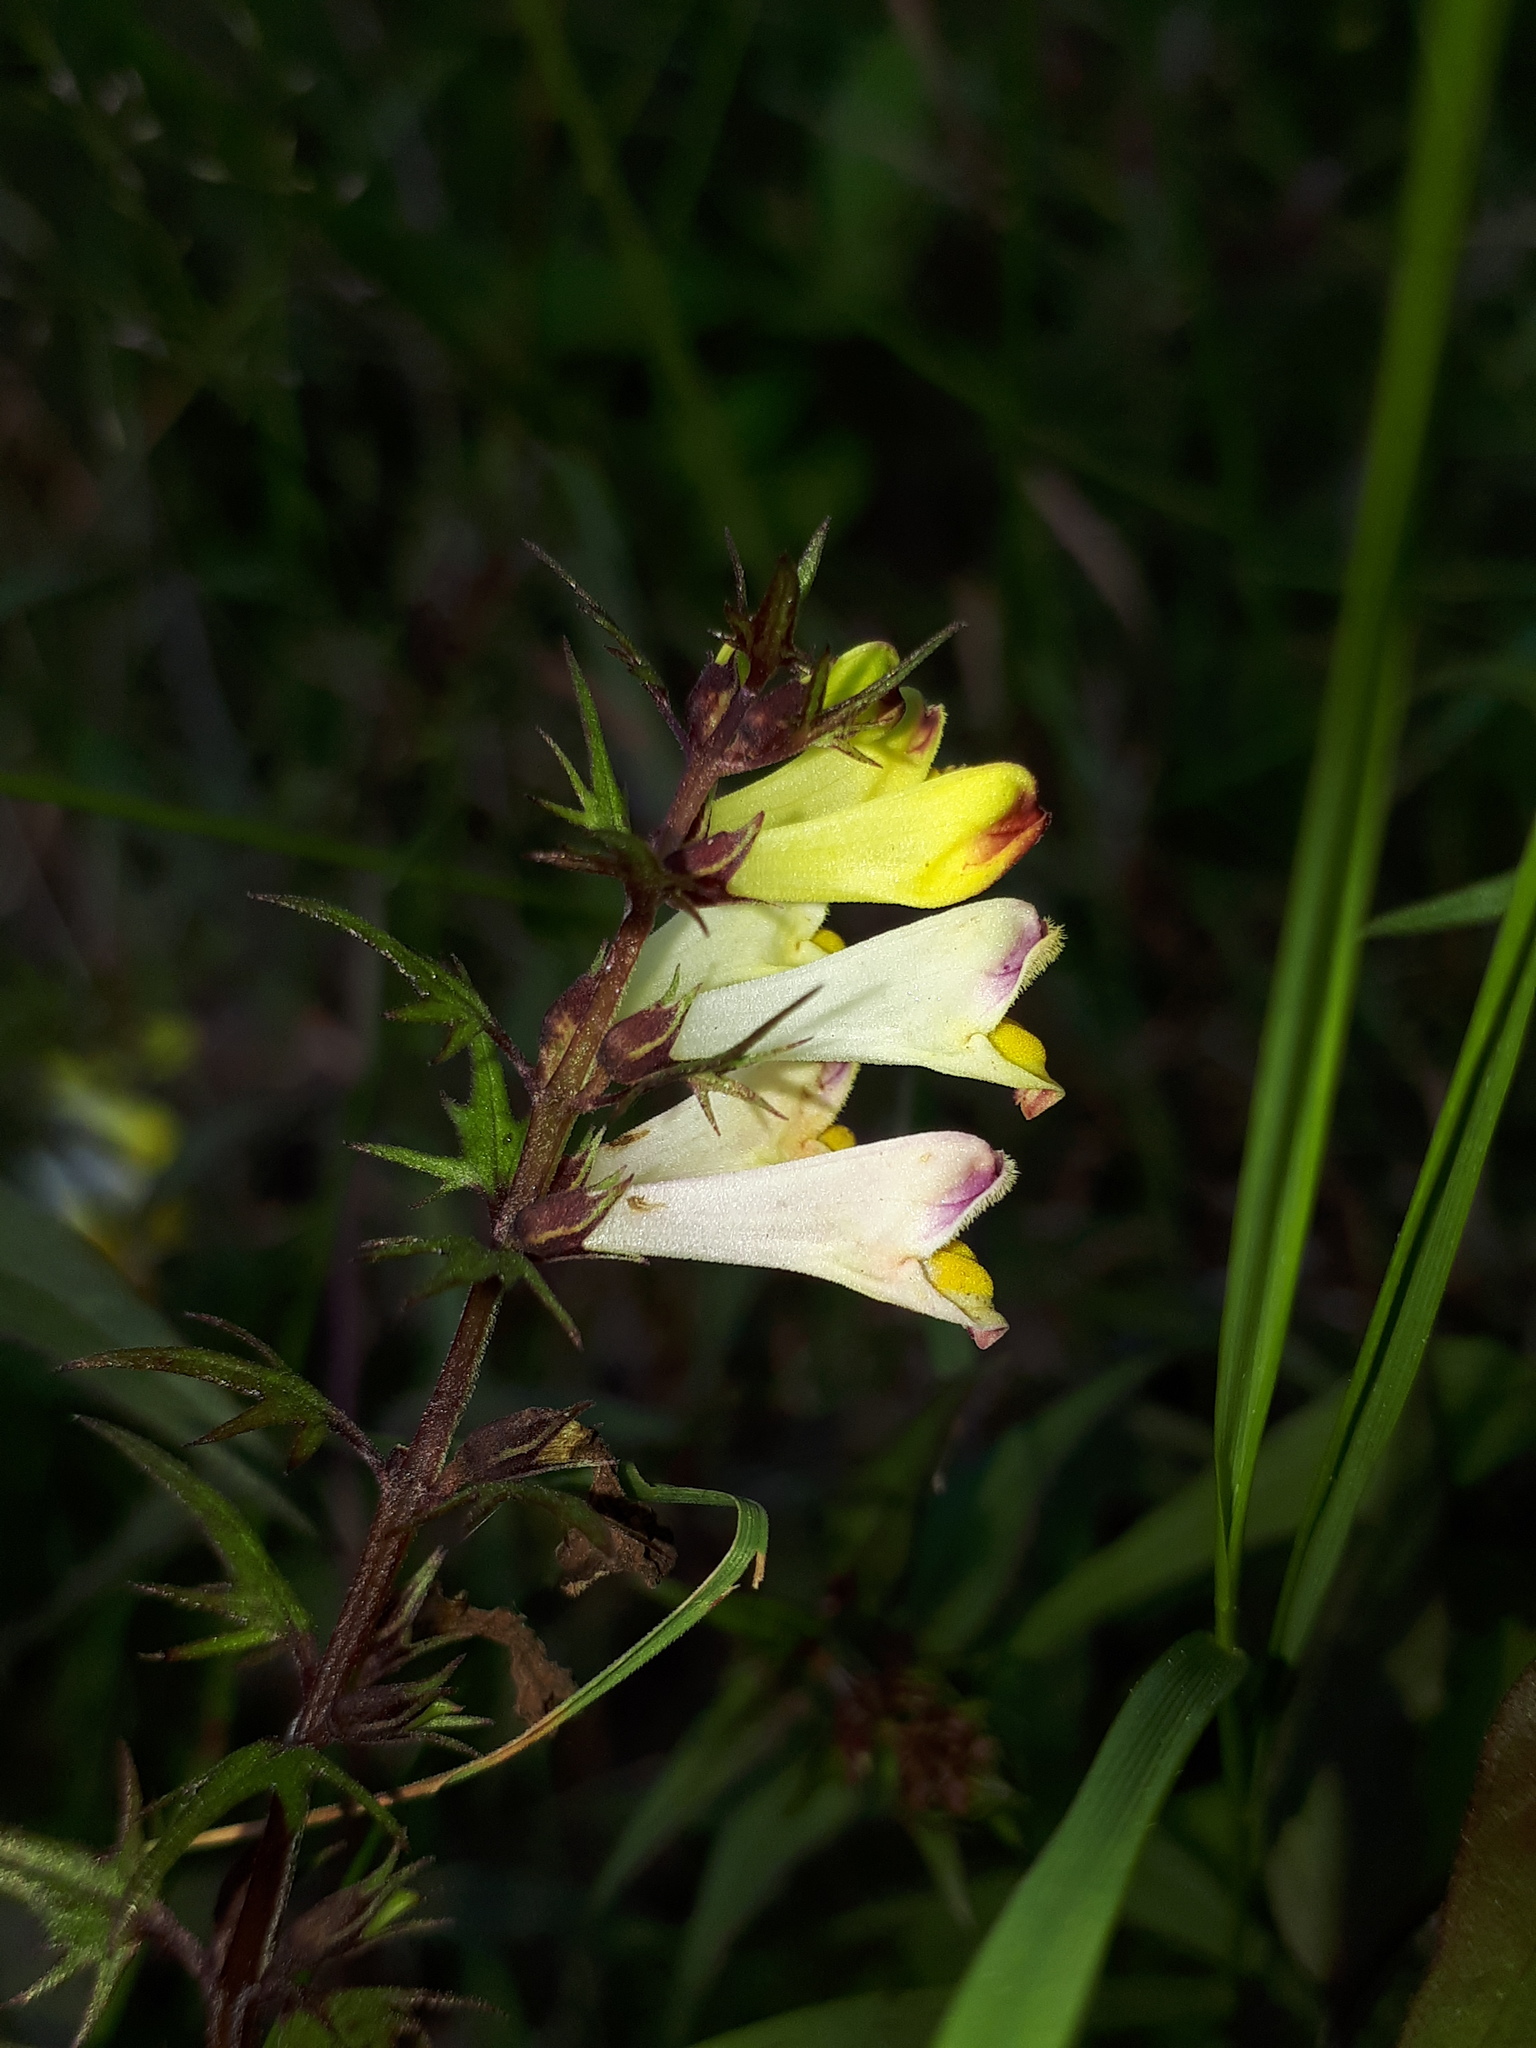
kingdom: Plantae
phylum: Tracheophyta
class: Magnoliopsida
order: Lamiales
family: Orobanchaceae
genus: Melampyrum
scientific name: Melampyrum pratense
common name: Common cow-wheat
